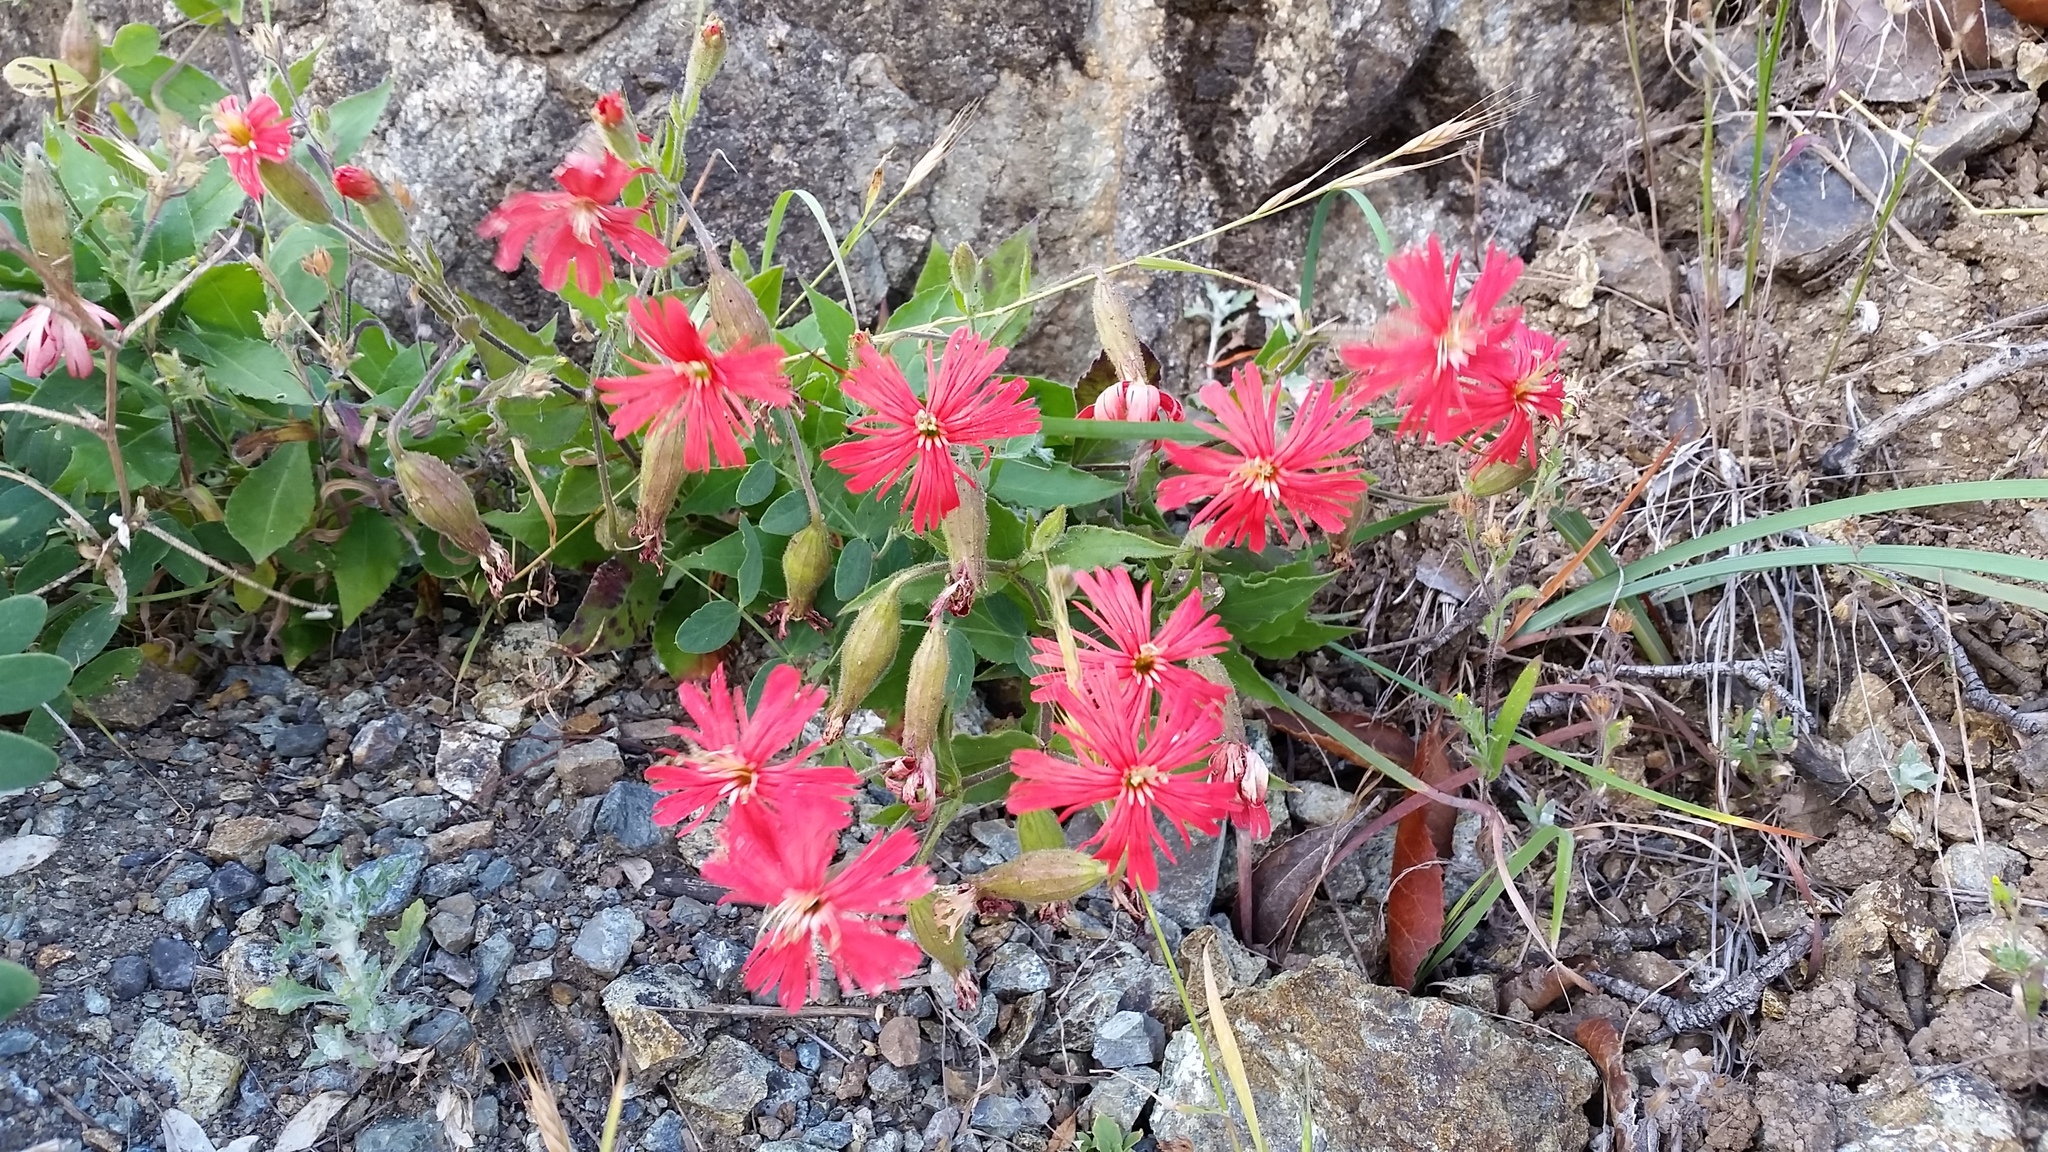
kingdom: Plantae
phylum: Tracheophyta
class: Magnoliopsida
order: Caryophyllales
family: Caryophyllaceae
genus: Silene
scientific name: Silene laciniata
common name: Indian-pink
